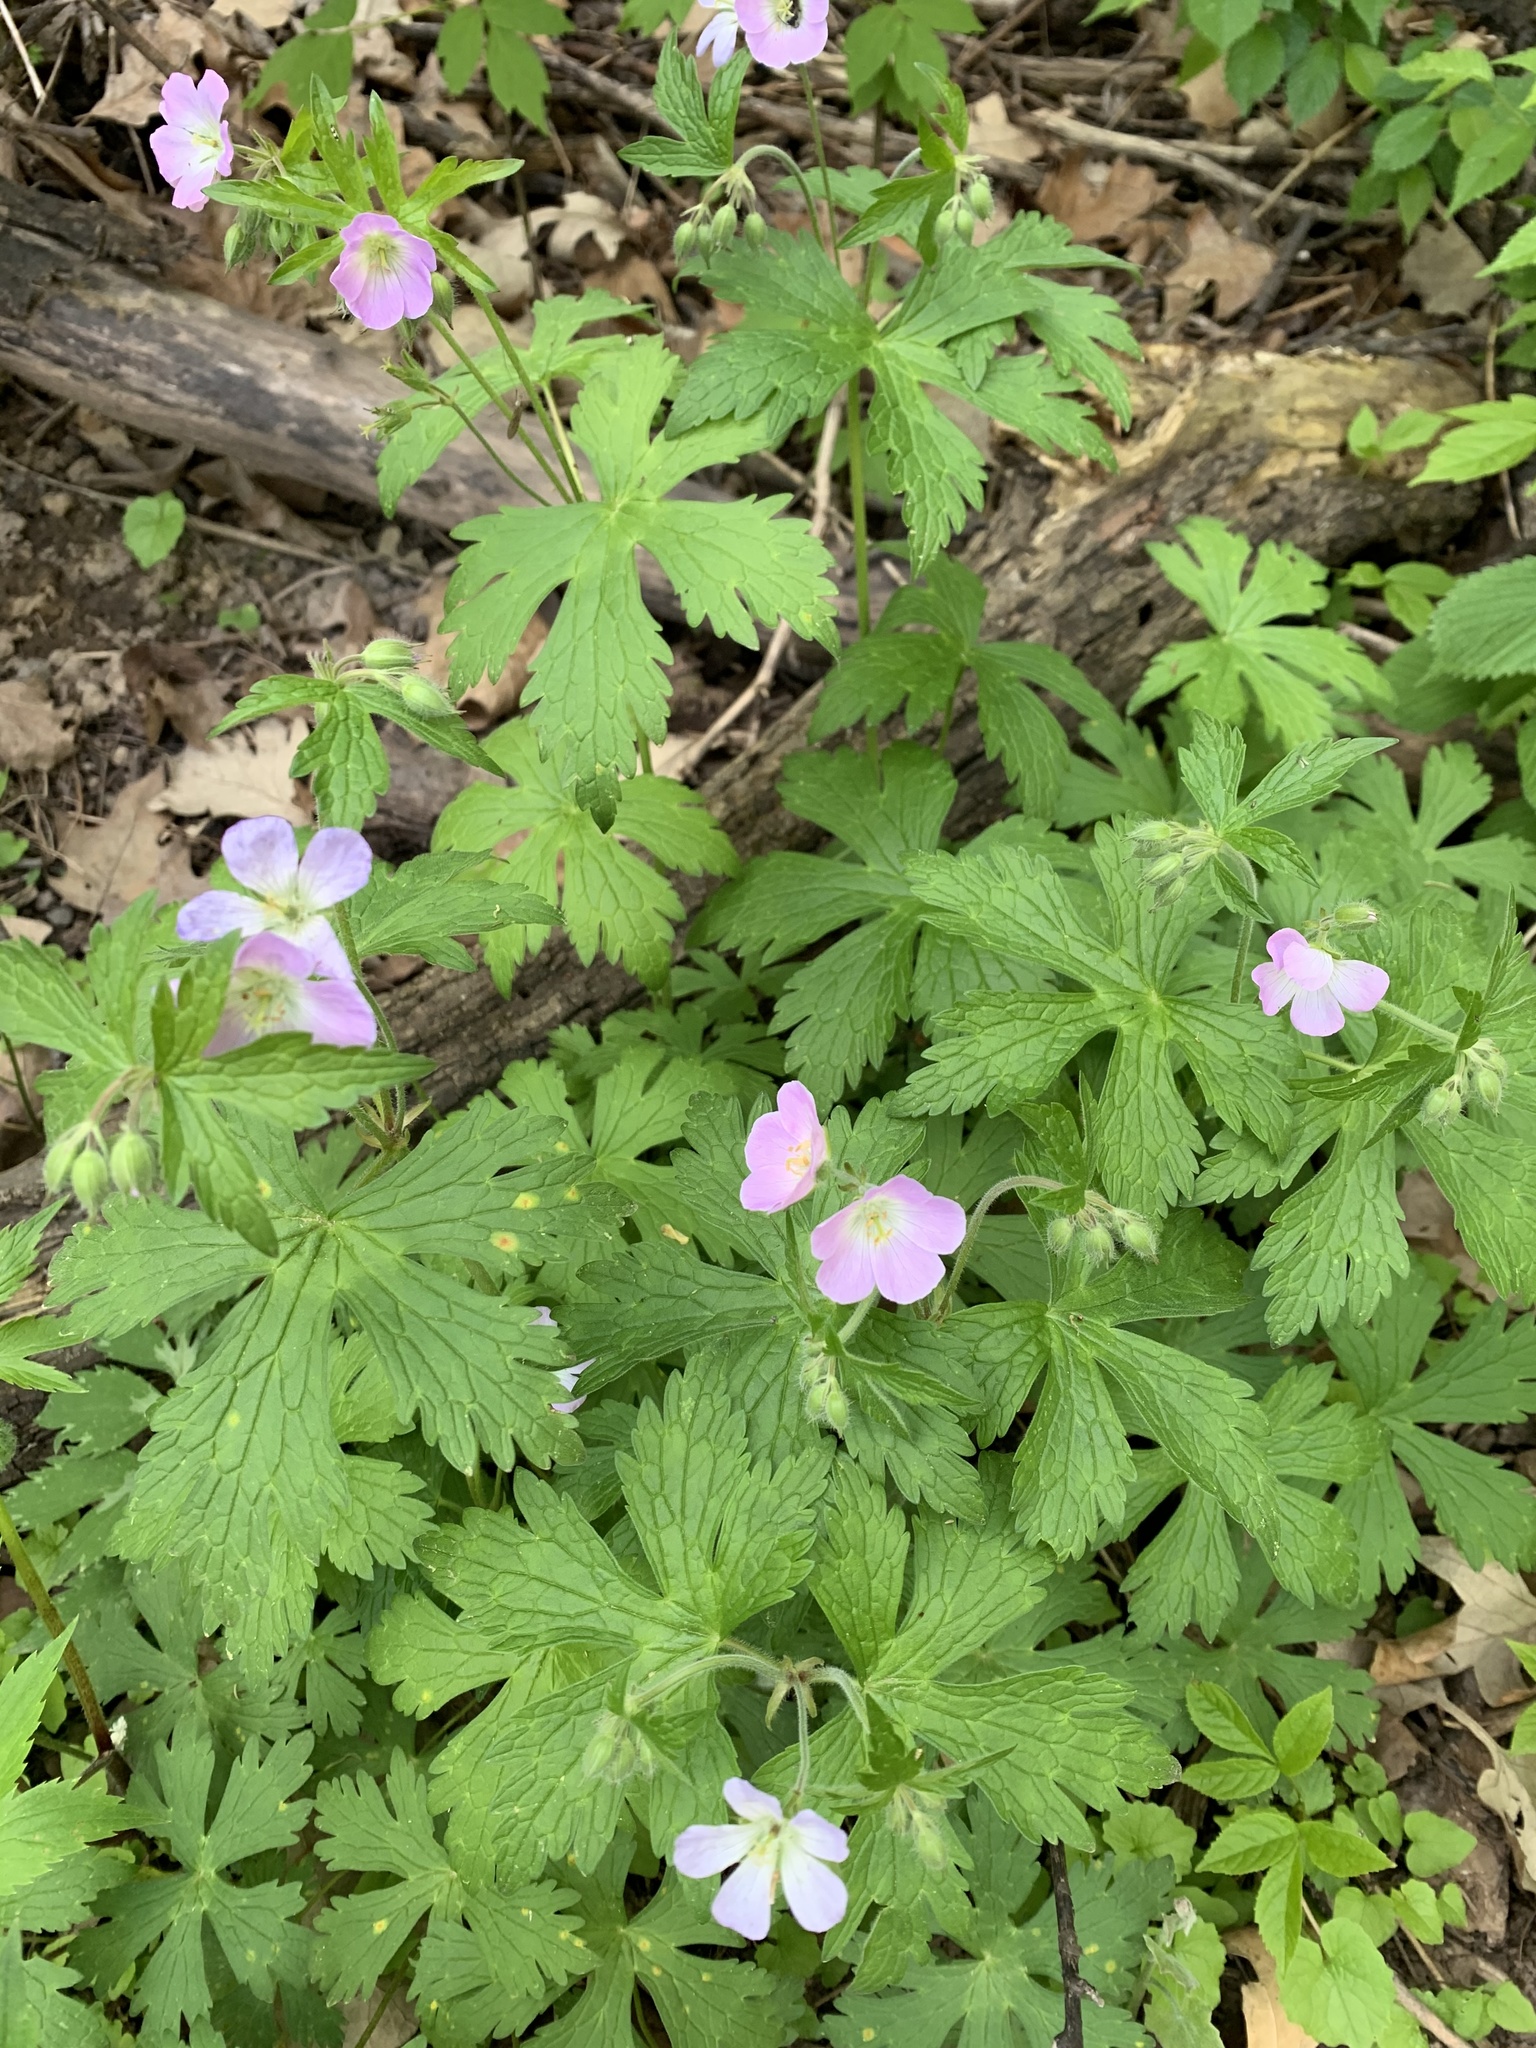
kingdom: Plantae
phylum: Tracheophyta
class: Magnoliopsida
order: Geraniales
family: Geraniaceae
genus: Geranium
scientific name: Geranium maculatum
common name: Spotted geranium
